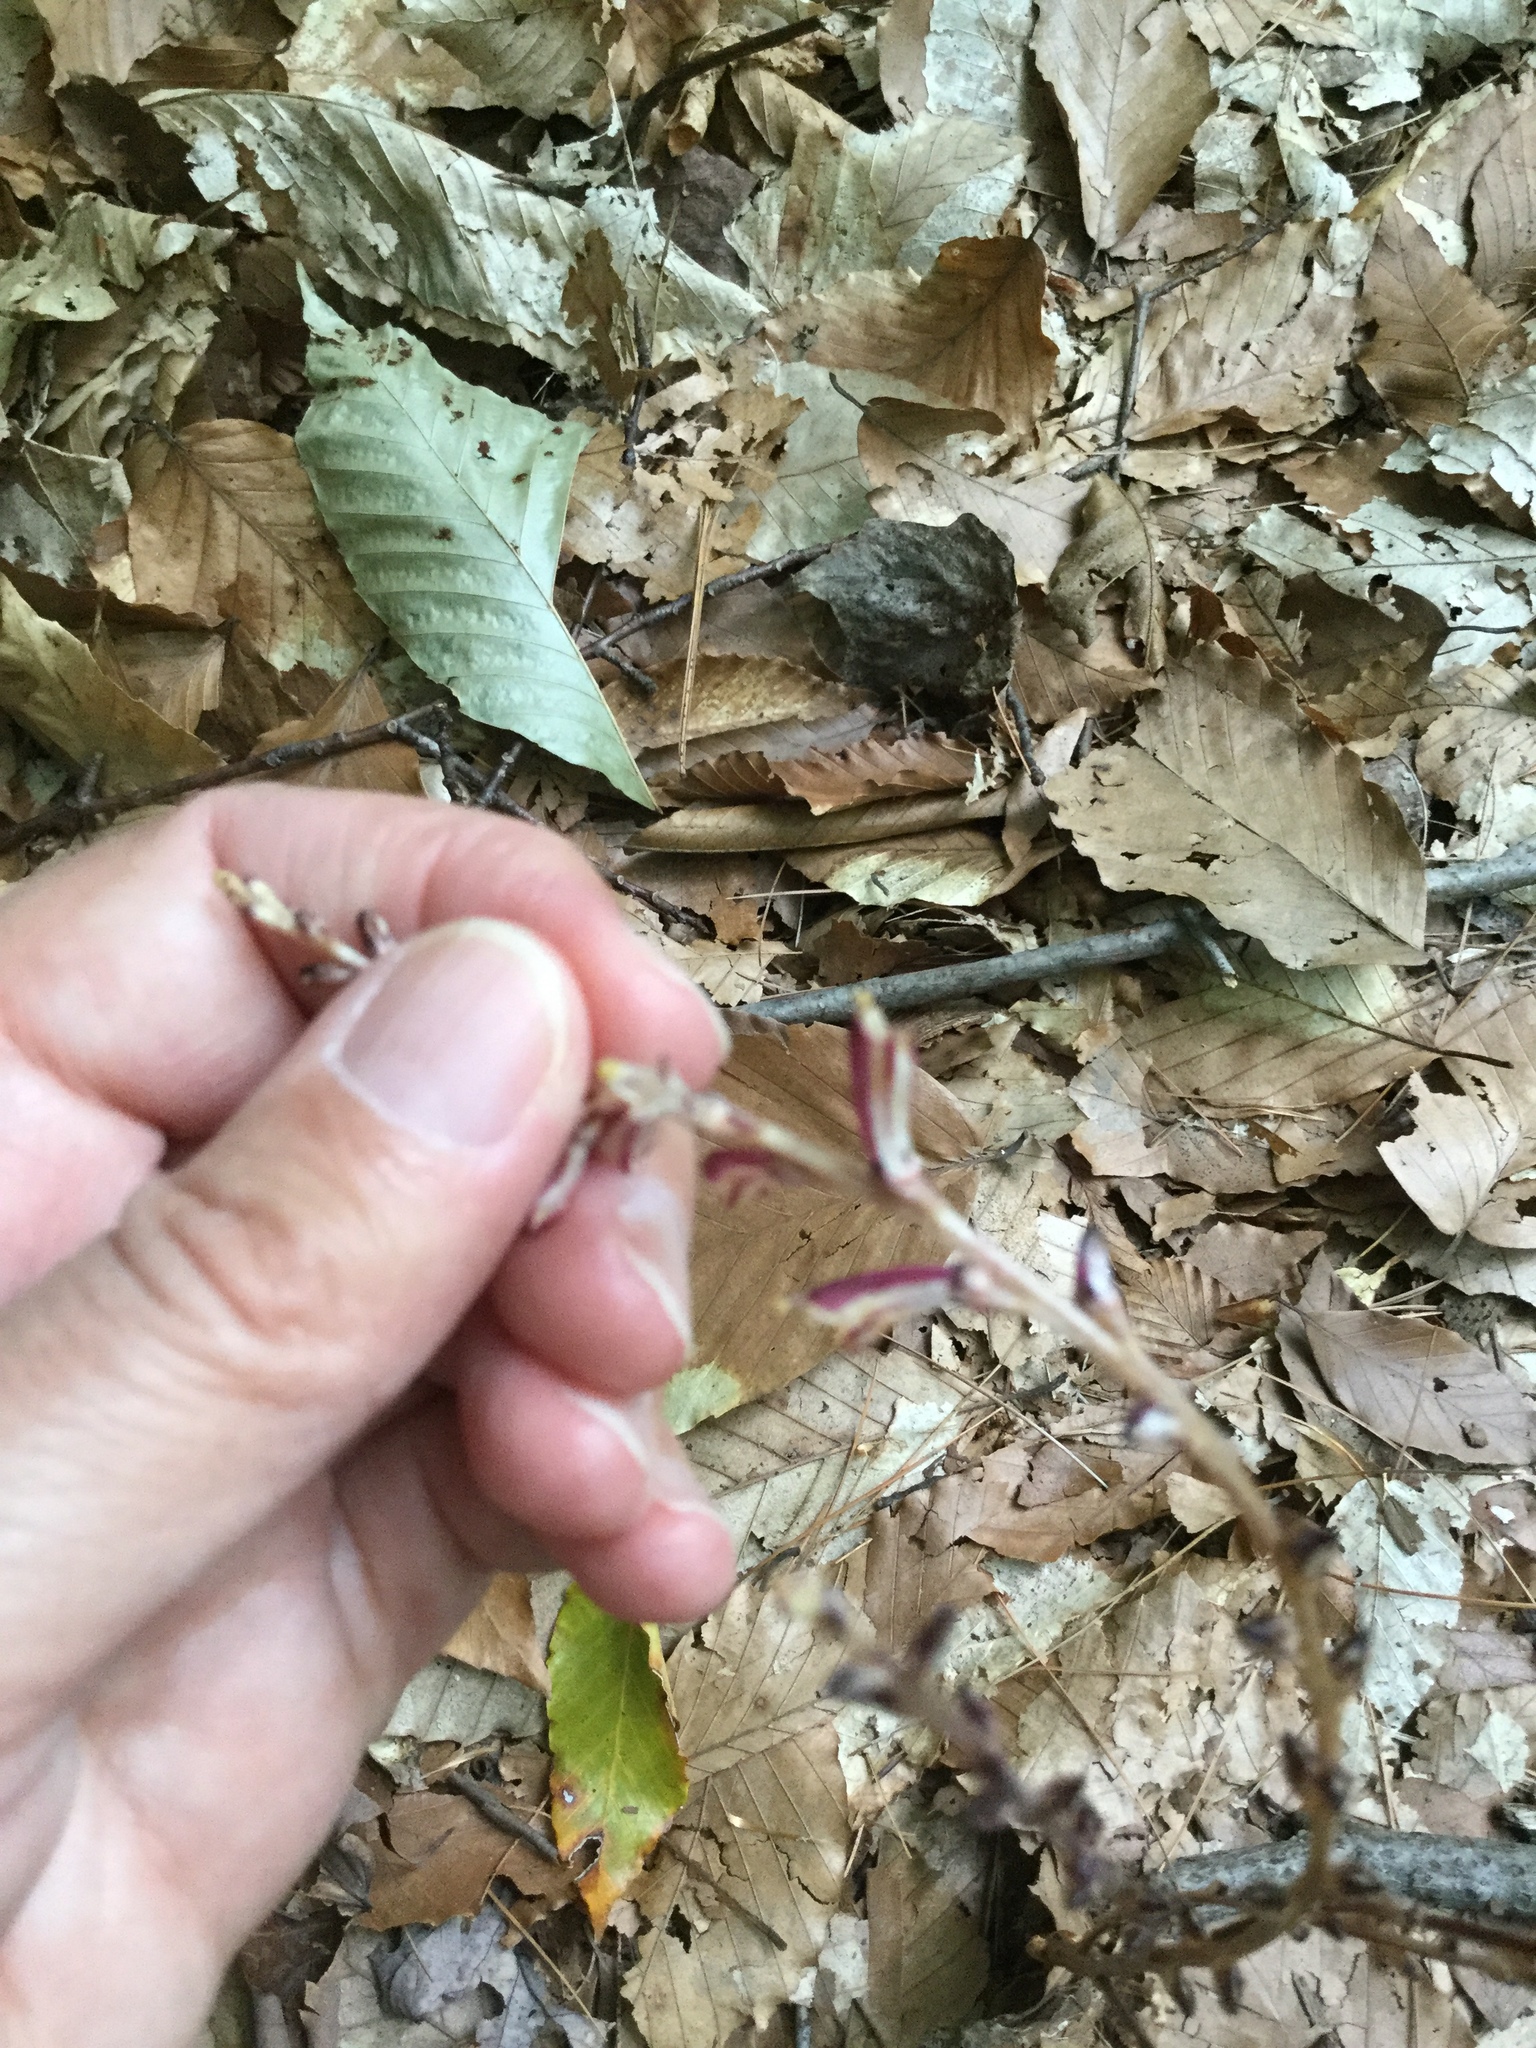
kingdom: Plantae
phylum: Tracheophyta
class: Magnoliopsida
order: Lamiales
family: Orobanchaceae
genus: Epifagus
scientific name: Epifagus virginiana
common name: Beechdrops
